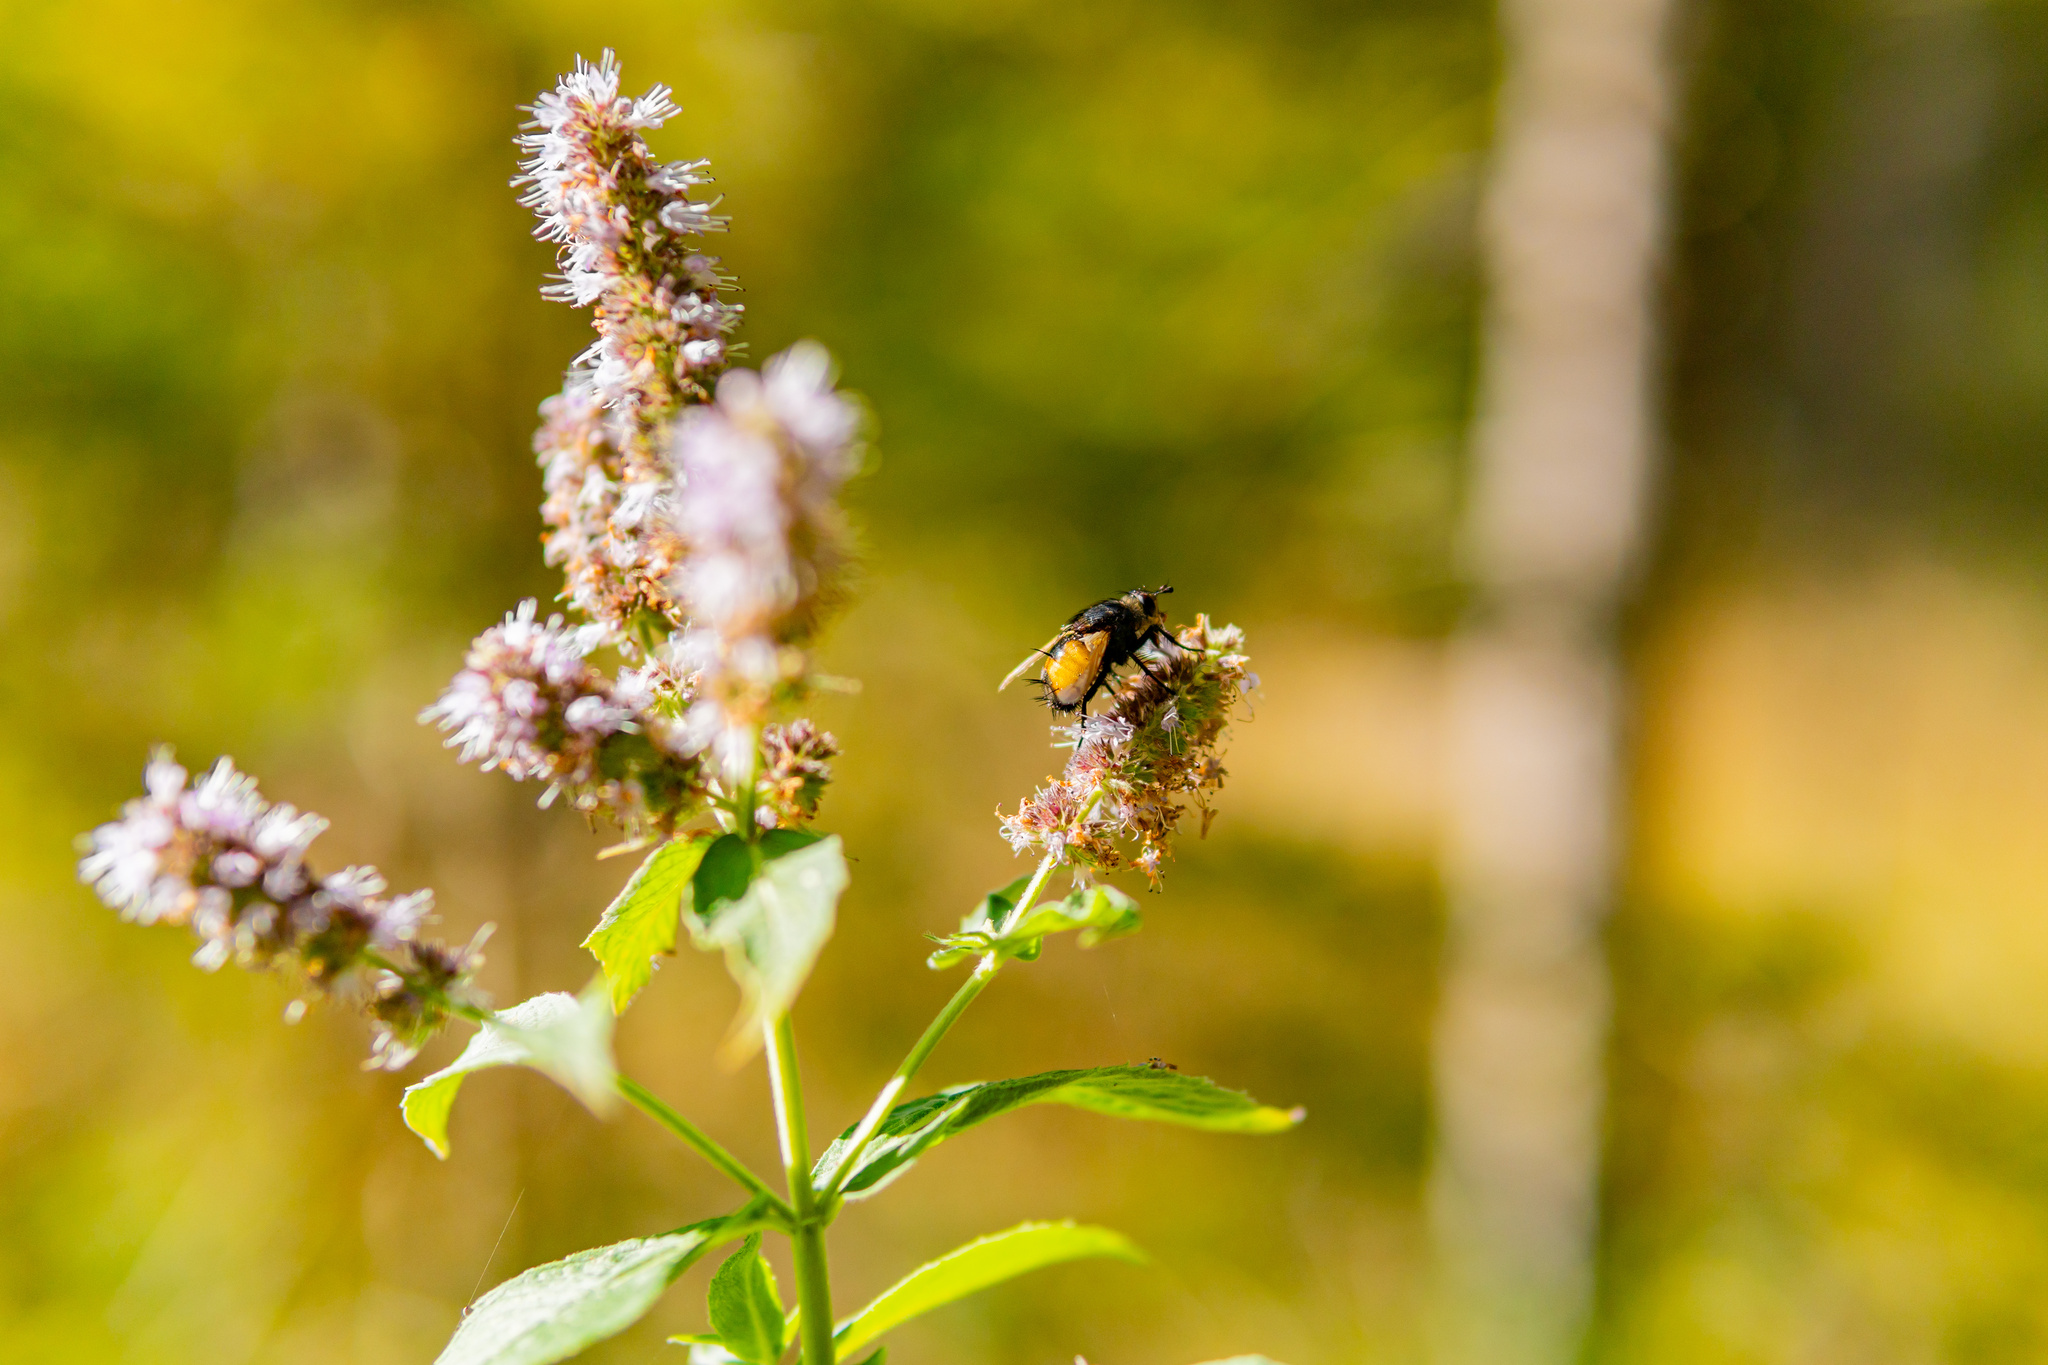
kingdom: Animalia
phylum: Arthropoda
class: Insecta
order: Diptera
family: Tachinidae
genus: Nowickia
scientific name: Nowickia ferox
